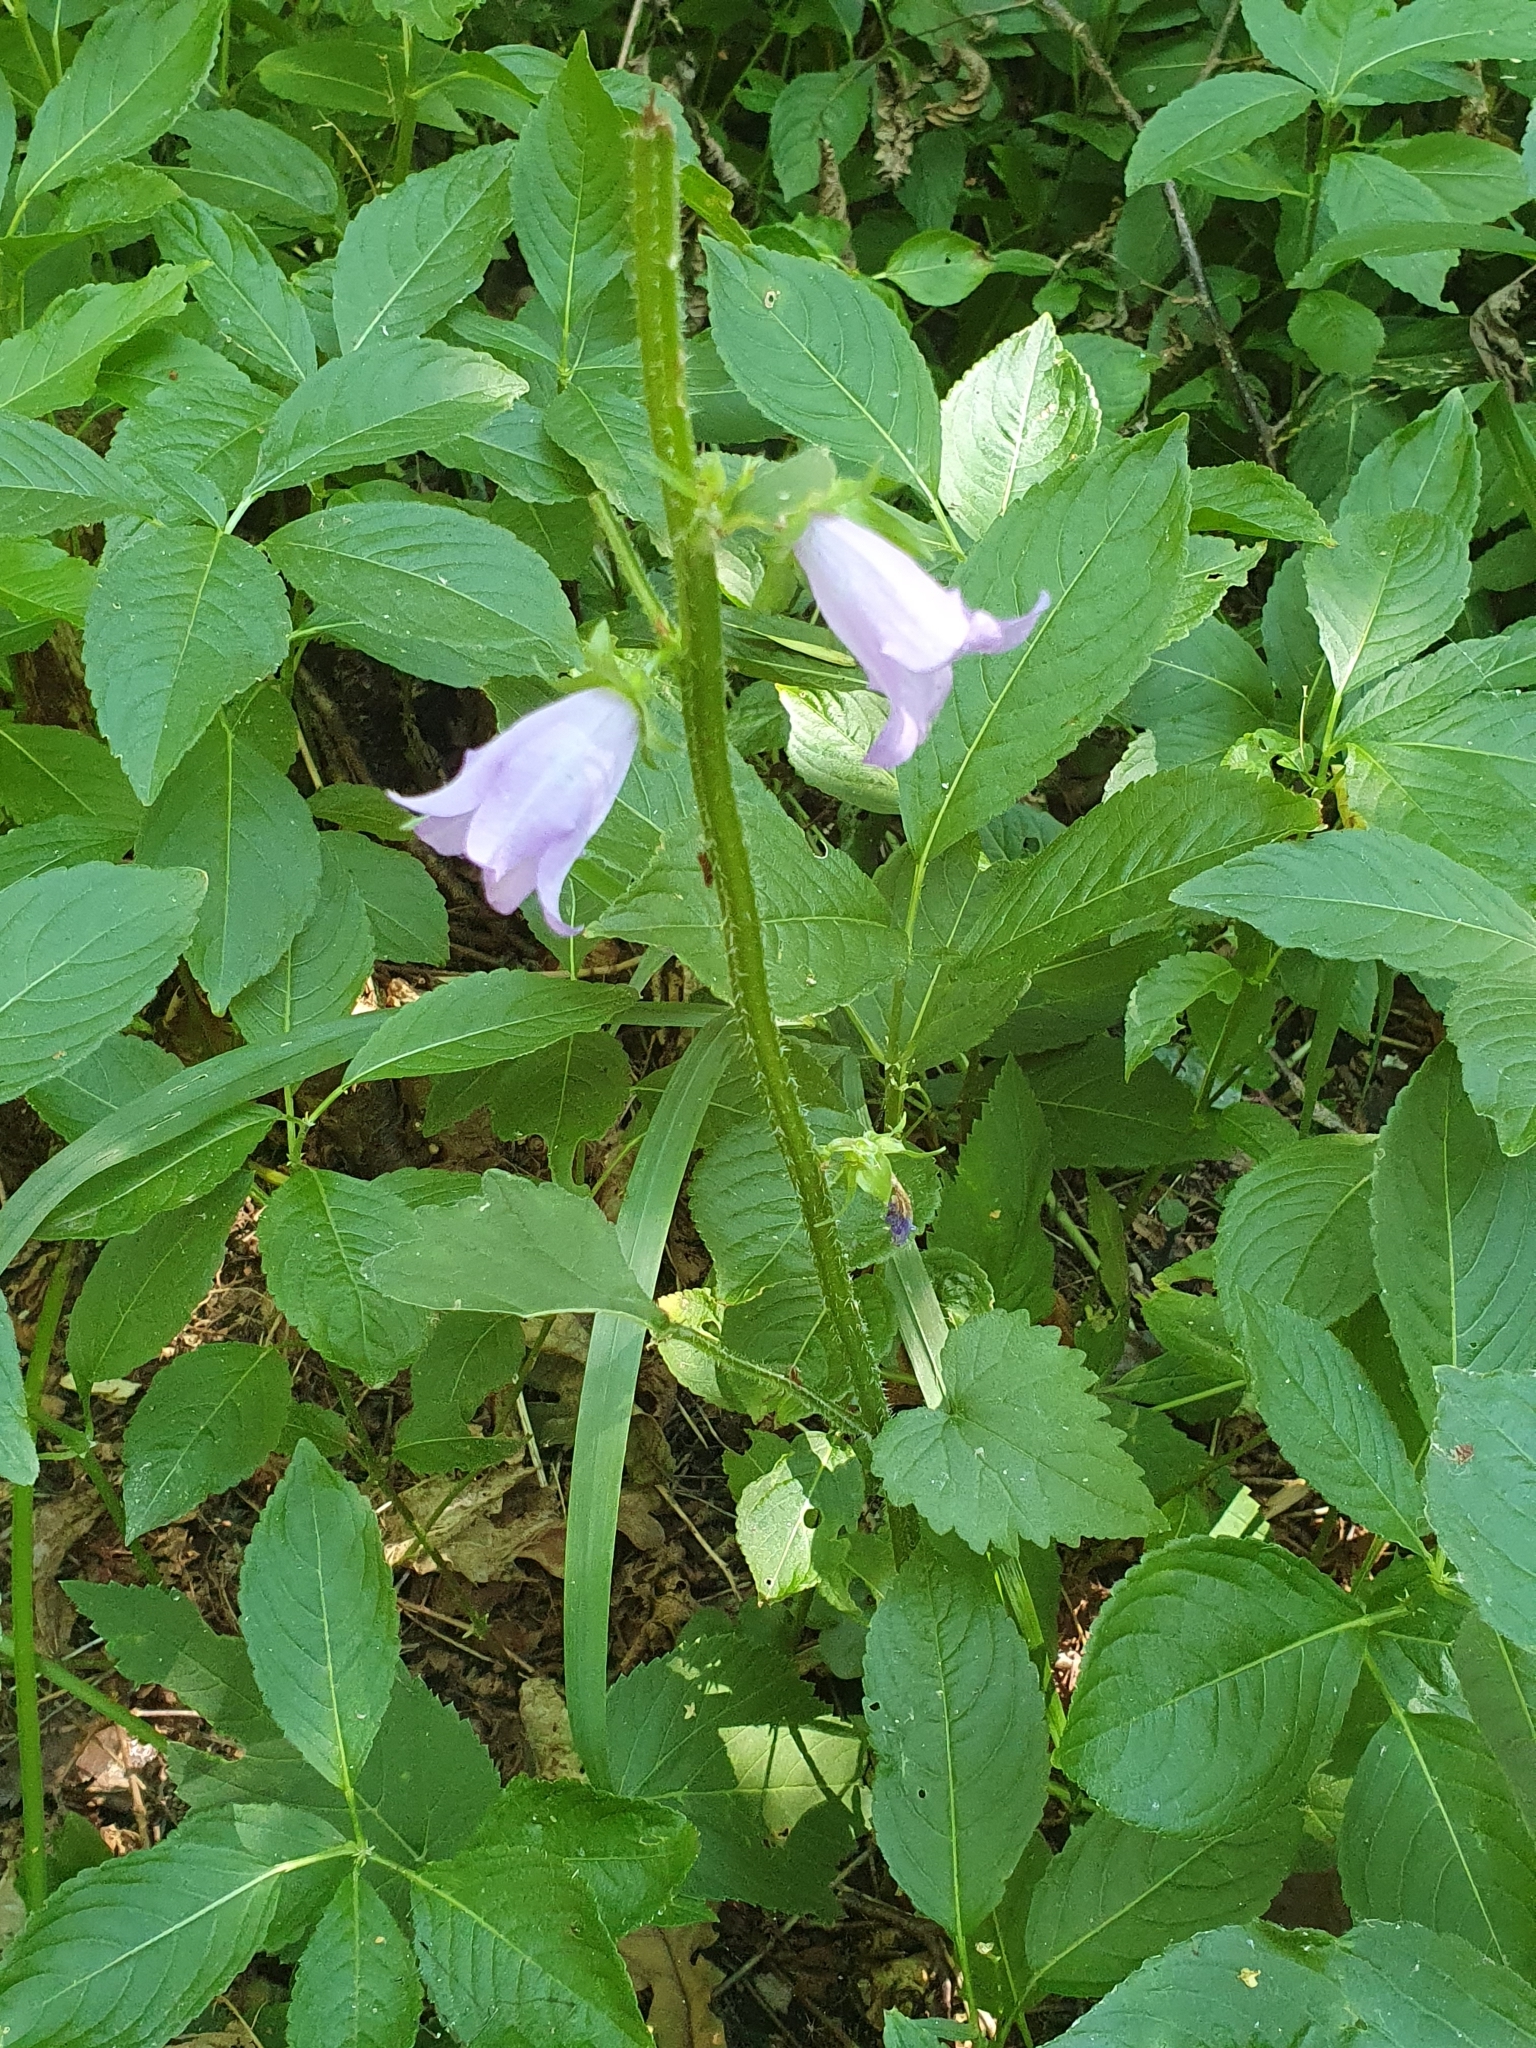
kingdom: Plantae
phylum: Tracheophyta
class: Magnoliopsida
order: Asterales
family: Campanulaceae
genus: Campanula
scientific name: Campanula trachelium
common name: Nettle-leaved bellflower
